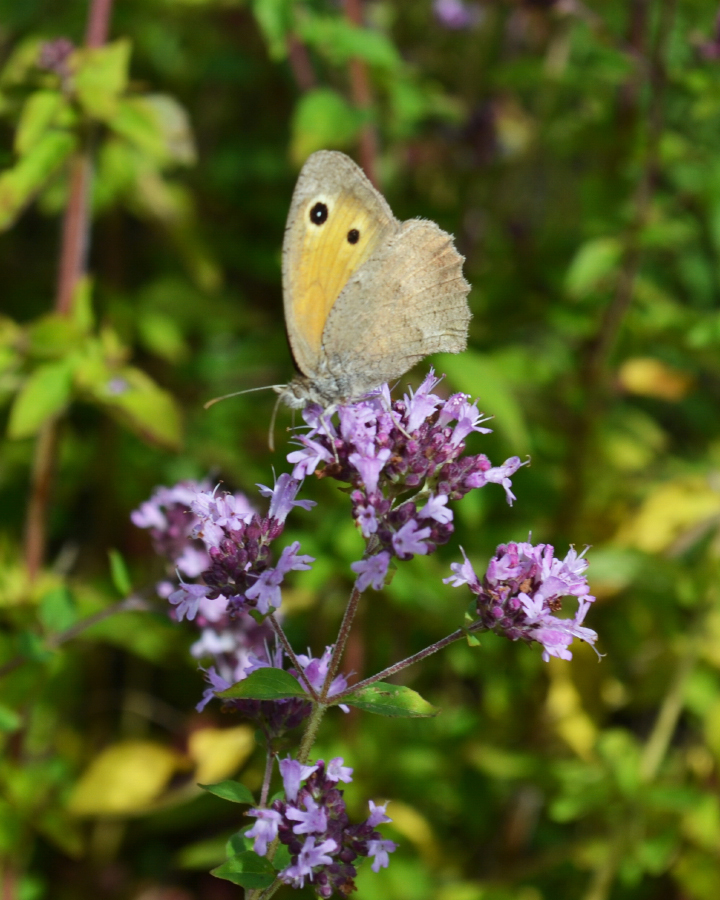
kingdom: Animalia
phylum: Arthropoda
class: Insecta
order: Lepidoptera
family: Nymphalidae
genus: Hyponephele
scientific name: Hyponephele lycaon
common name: Dusky meadow brown
